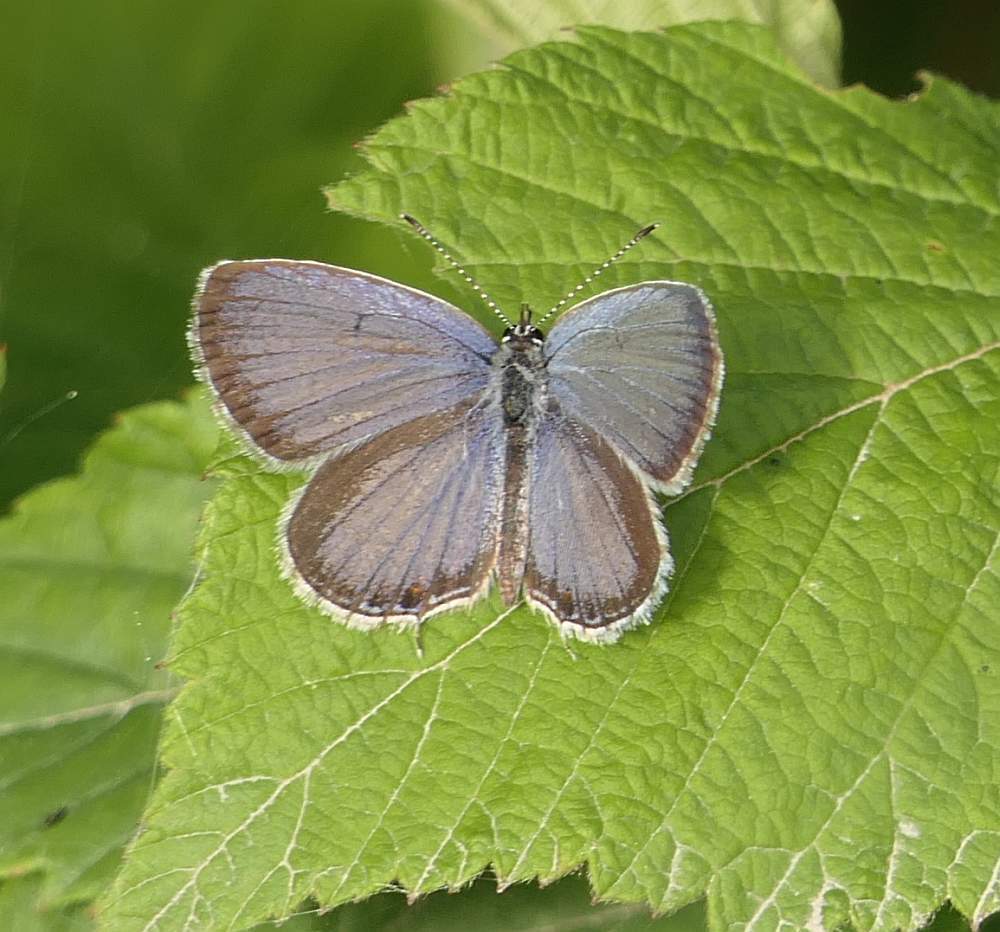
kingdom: Animalia
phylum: Arthropoda
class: Insecta
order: Lepidoptera
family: Lycaenidae
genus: Elkalyce
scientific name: Elkalyce comyntas
